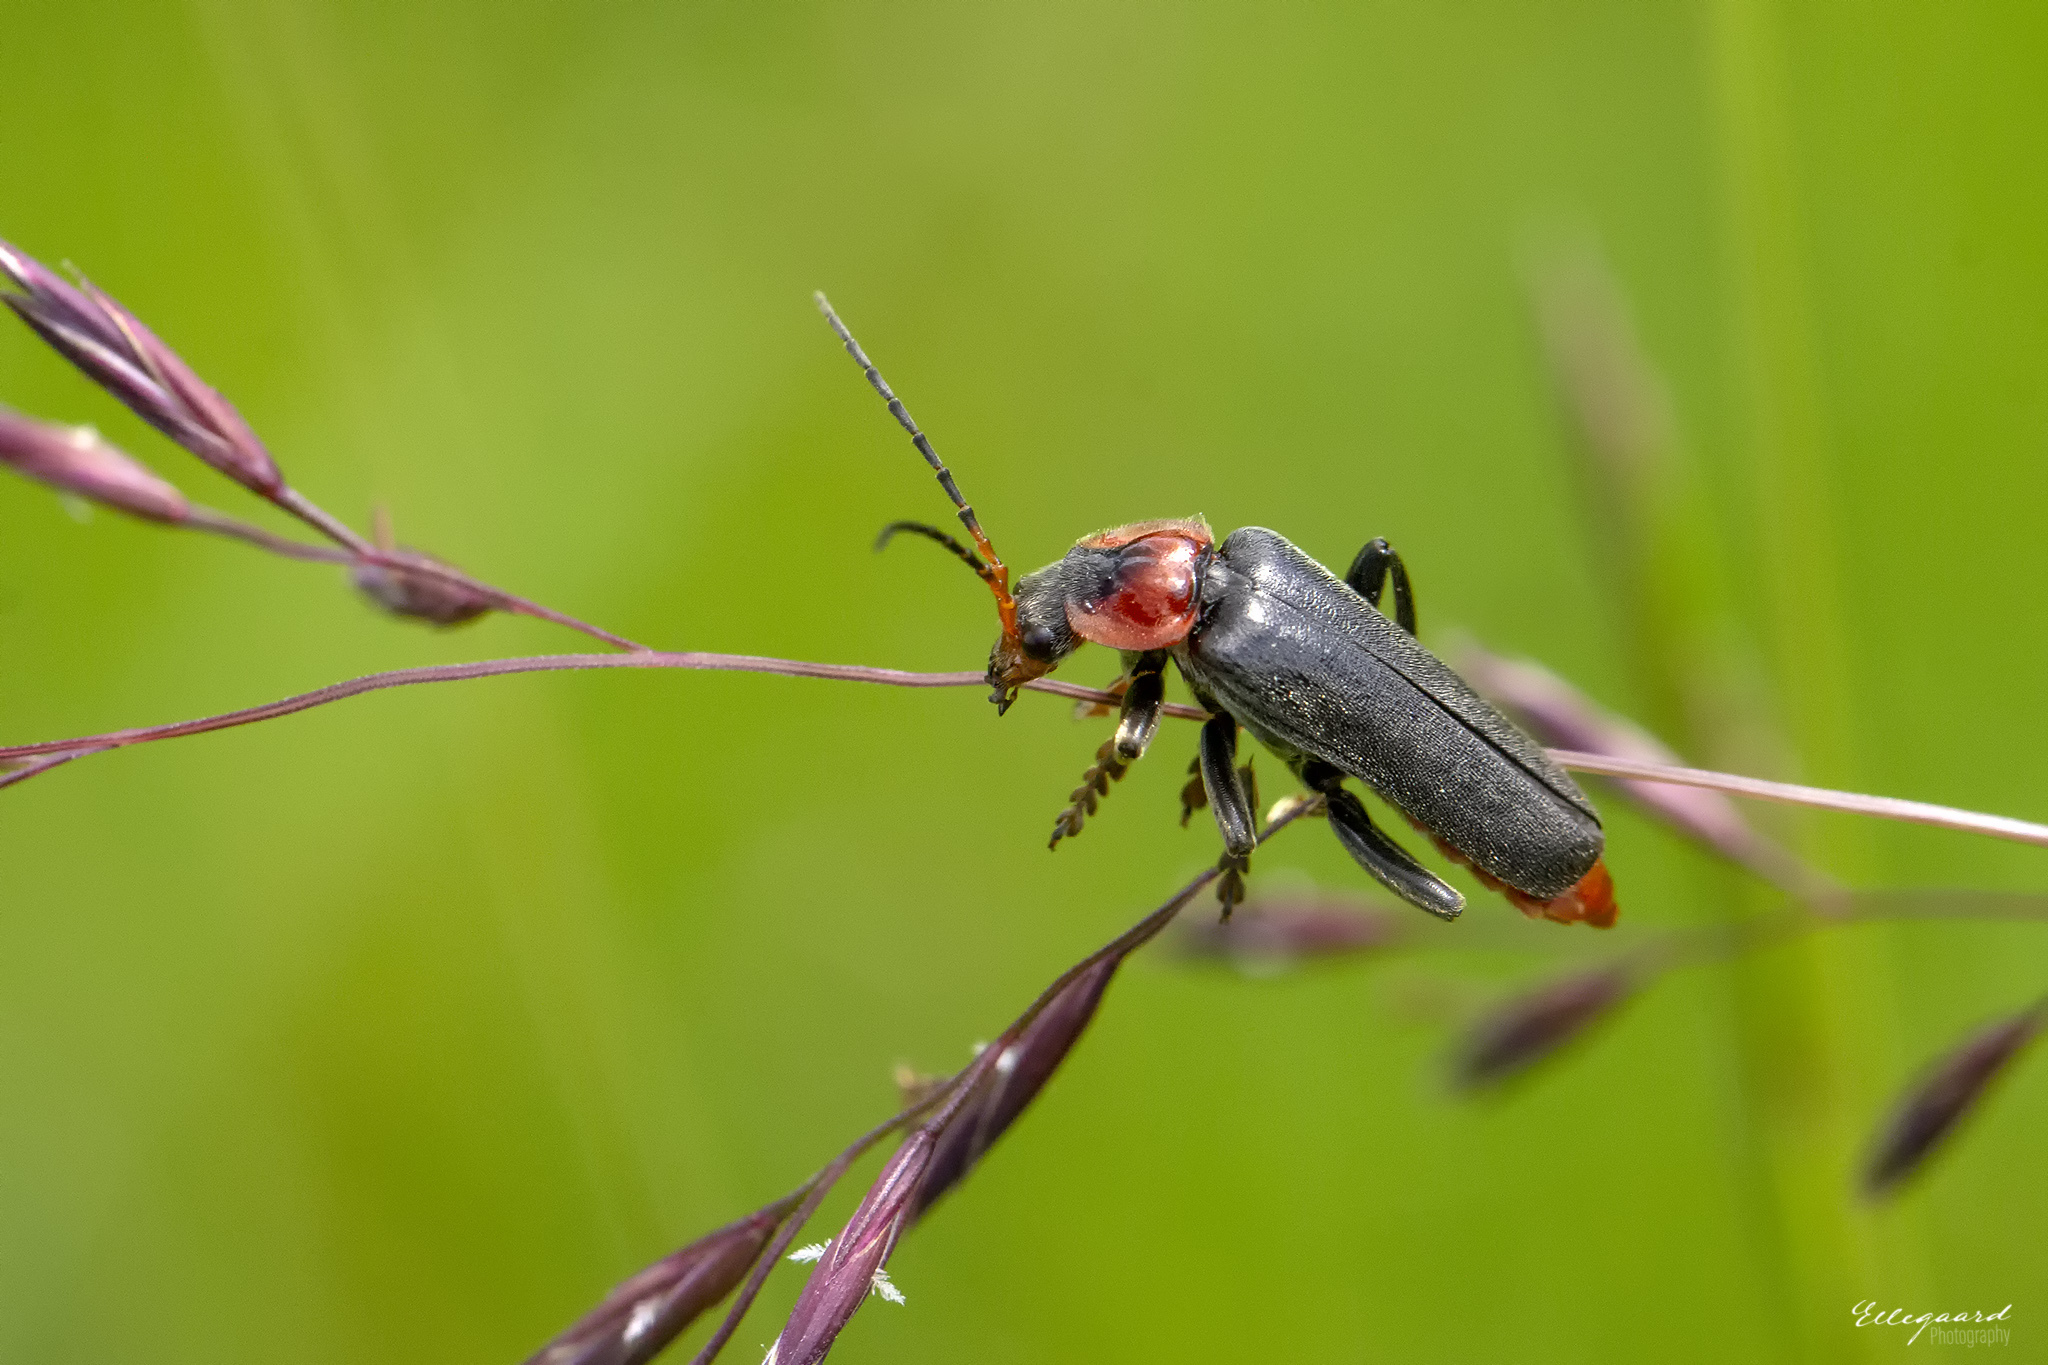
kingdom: Animalia
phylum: Arthropoda
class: Insecta
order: Coleoptera
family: Cantharidae
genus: Cantharis
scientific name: Cantharis fusca
